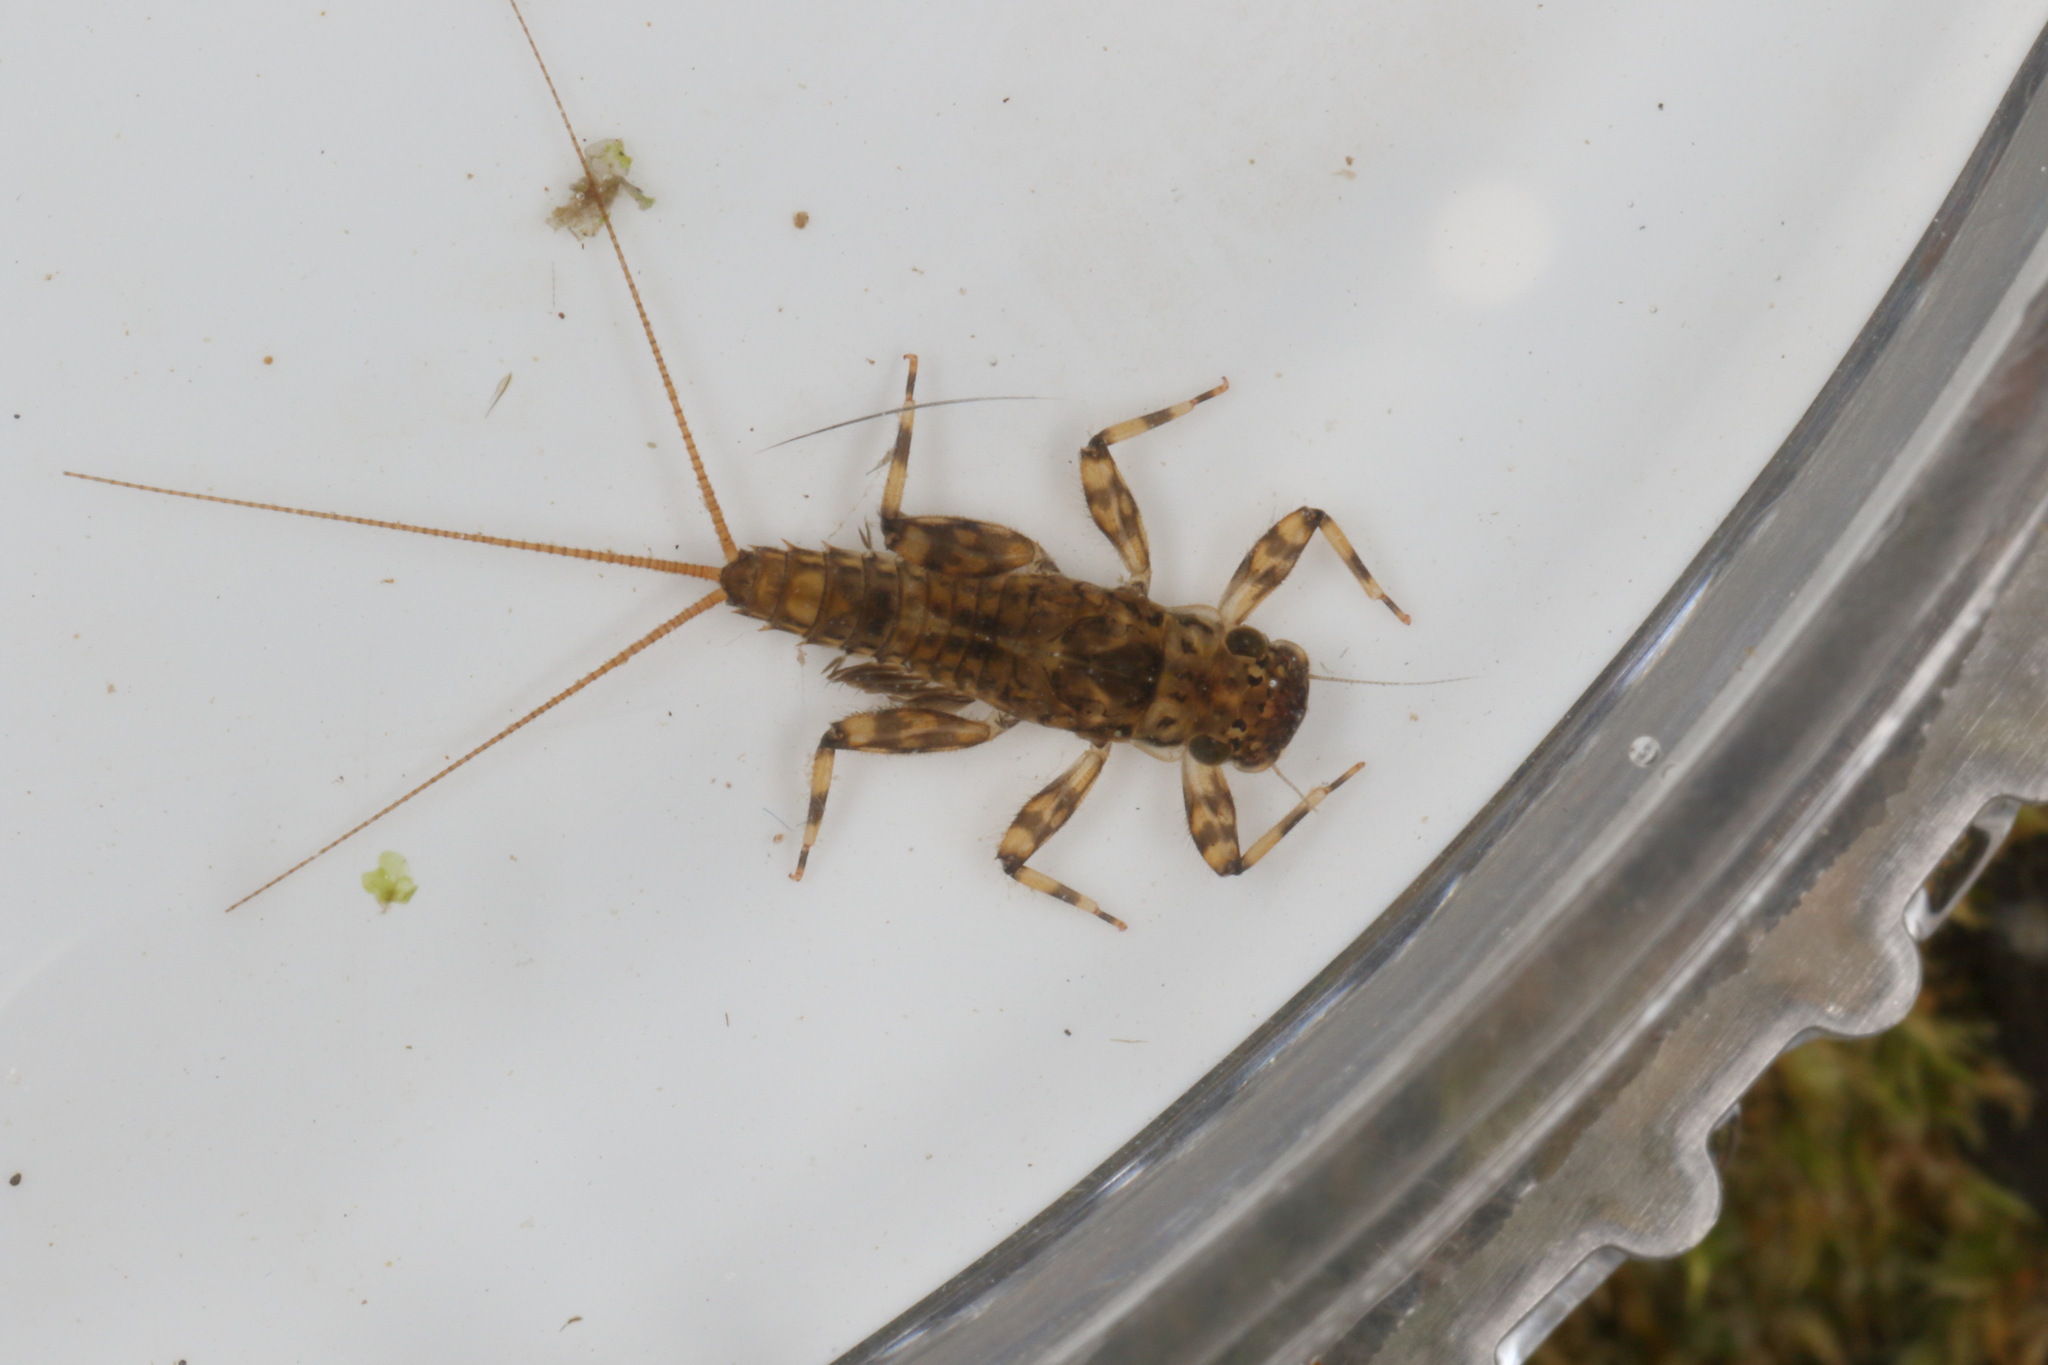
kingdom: Animalia
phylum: Arthropoda
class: Insecta
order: Ephemeroptera
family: Leptophlebiidae
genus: Zephlebia
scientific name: Zephlebia spectabilis
